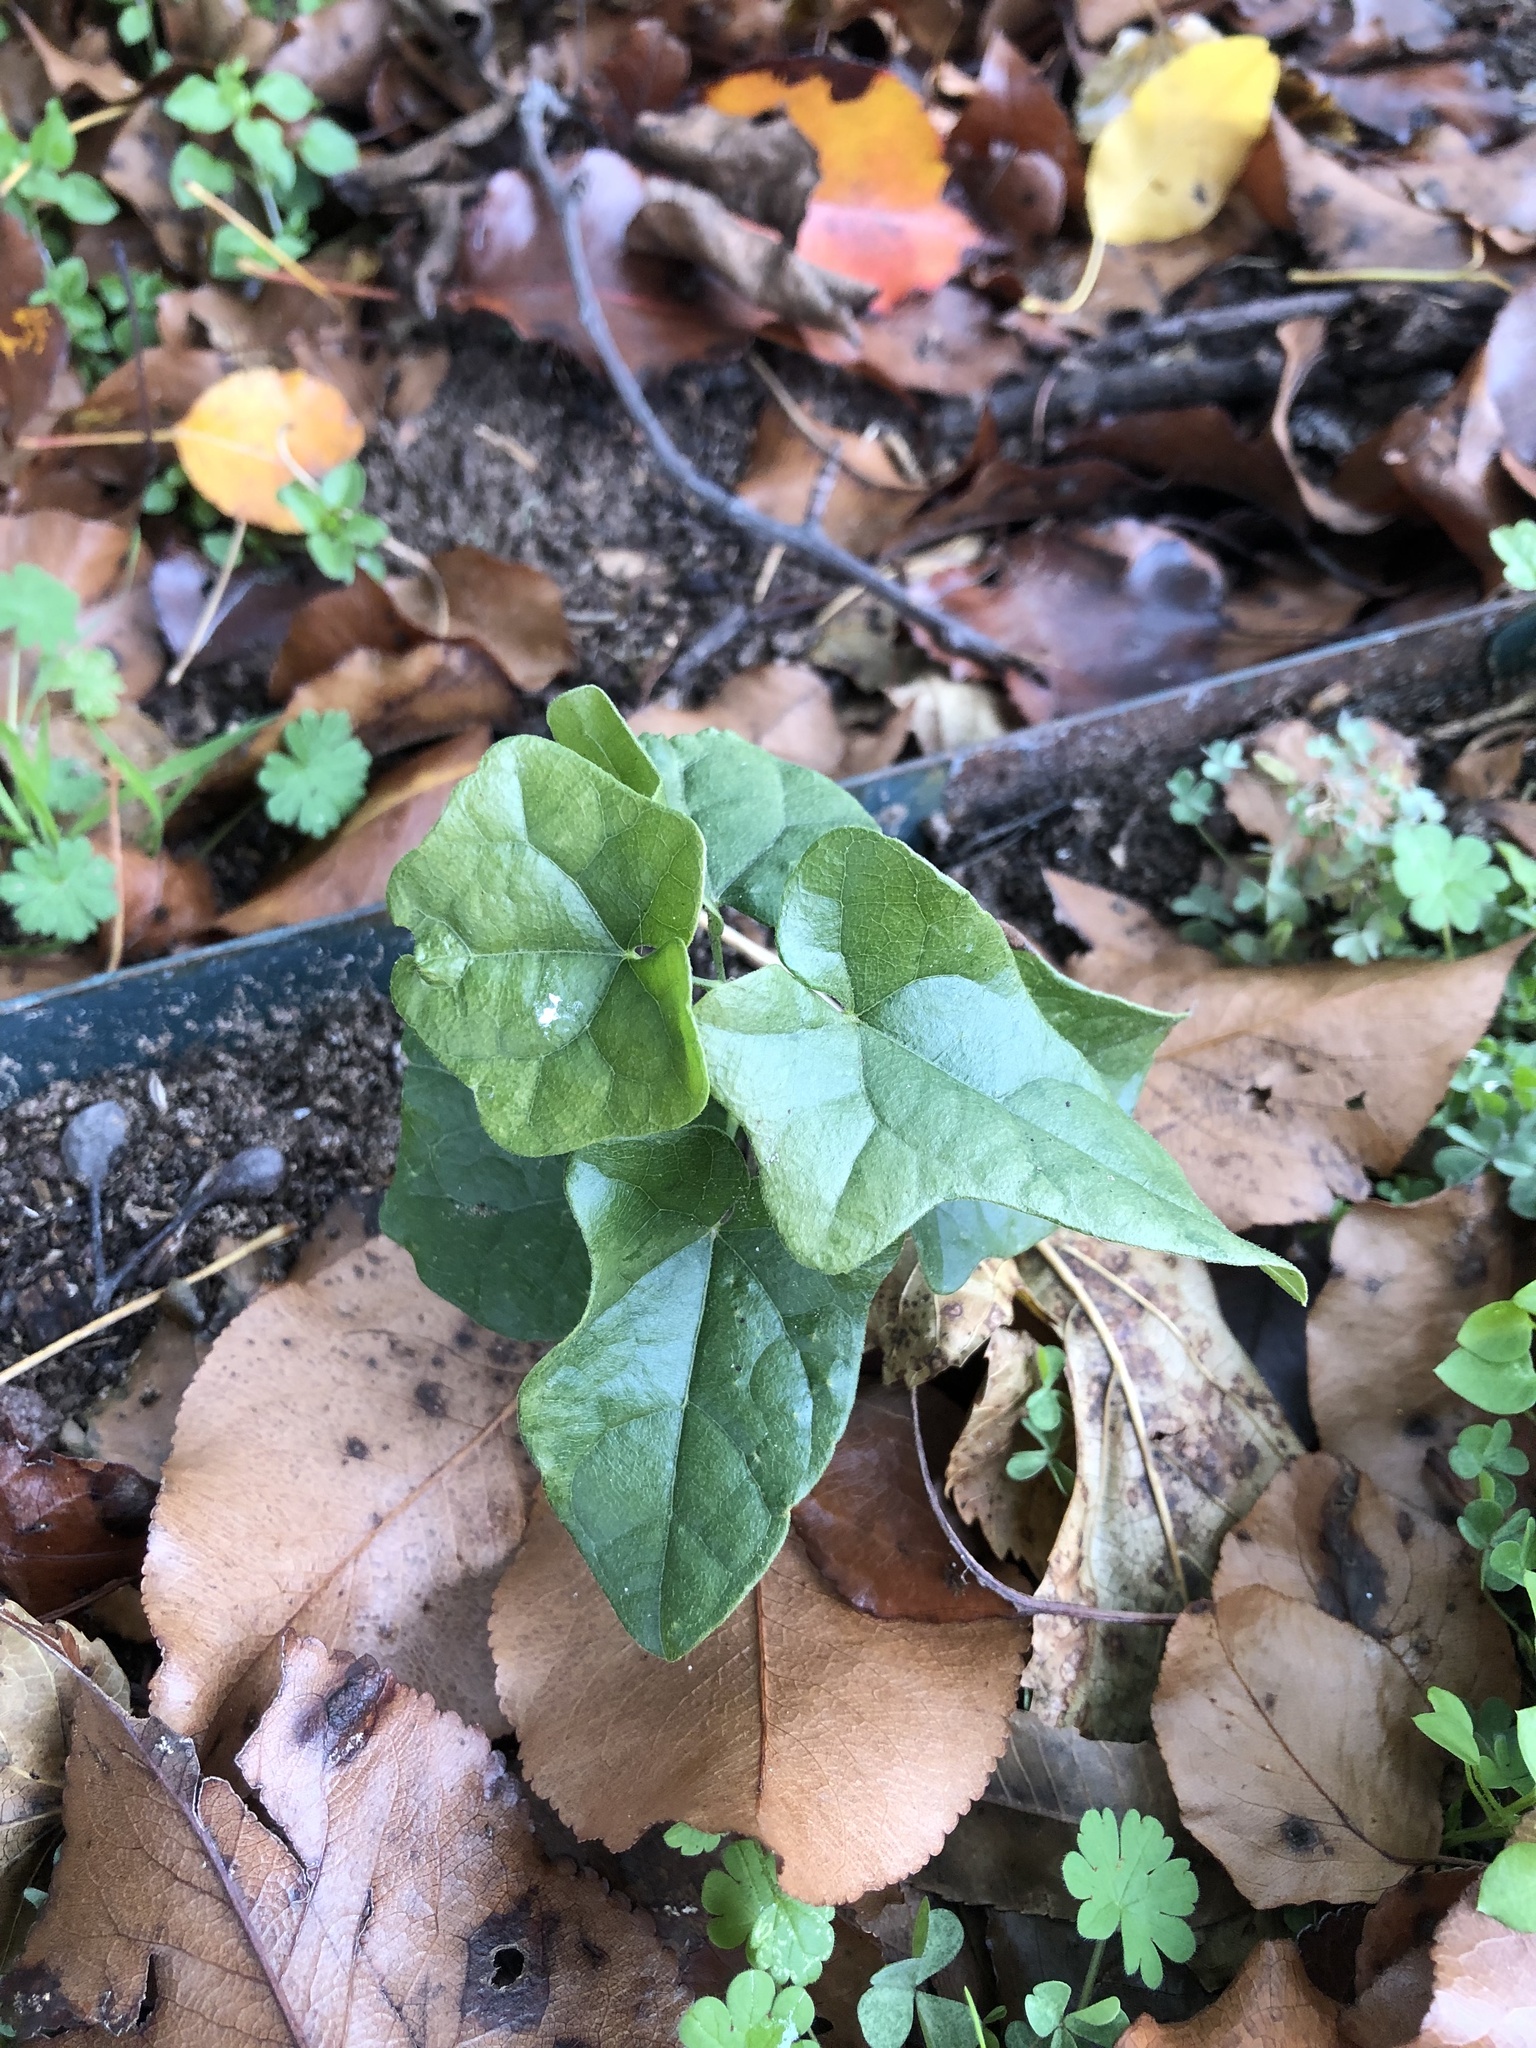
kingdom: Plantae
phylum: Tracheophyta
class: Magnoliopsida
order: Ranunculales
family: Menispermaceae
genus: Cocculus
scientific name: Cocculus carolinus
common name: Carolina moonseed
